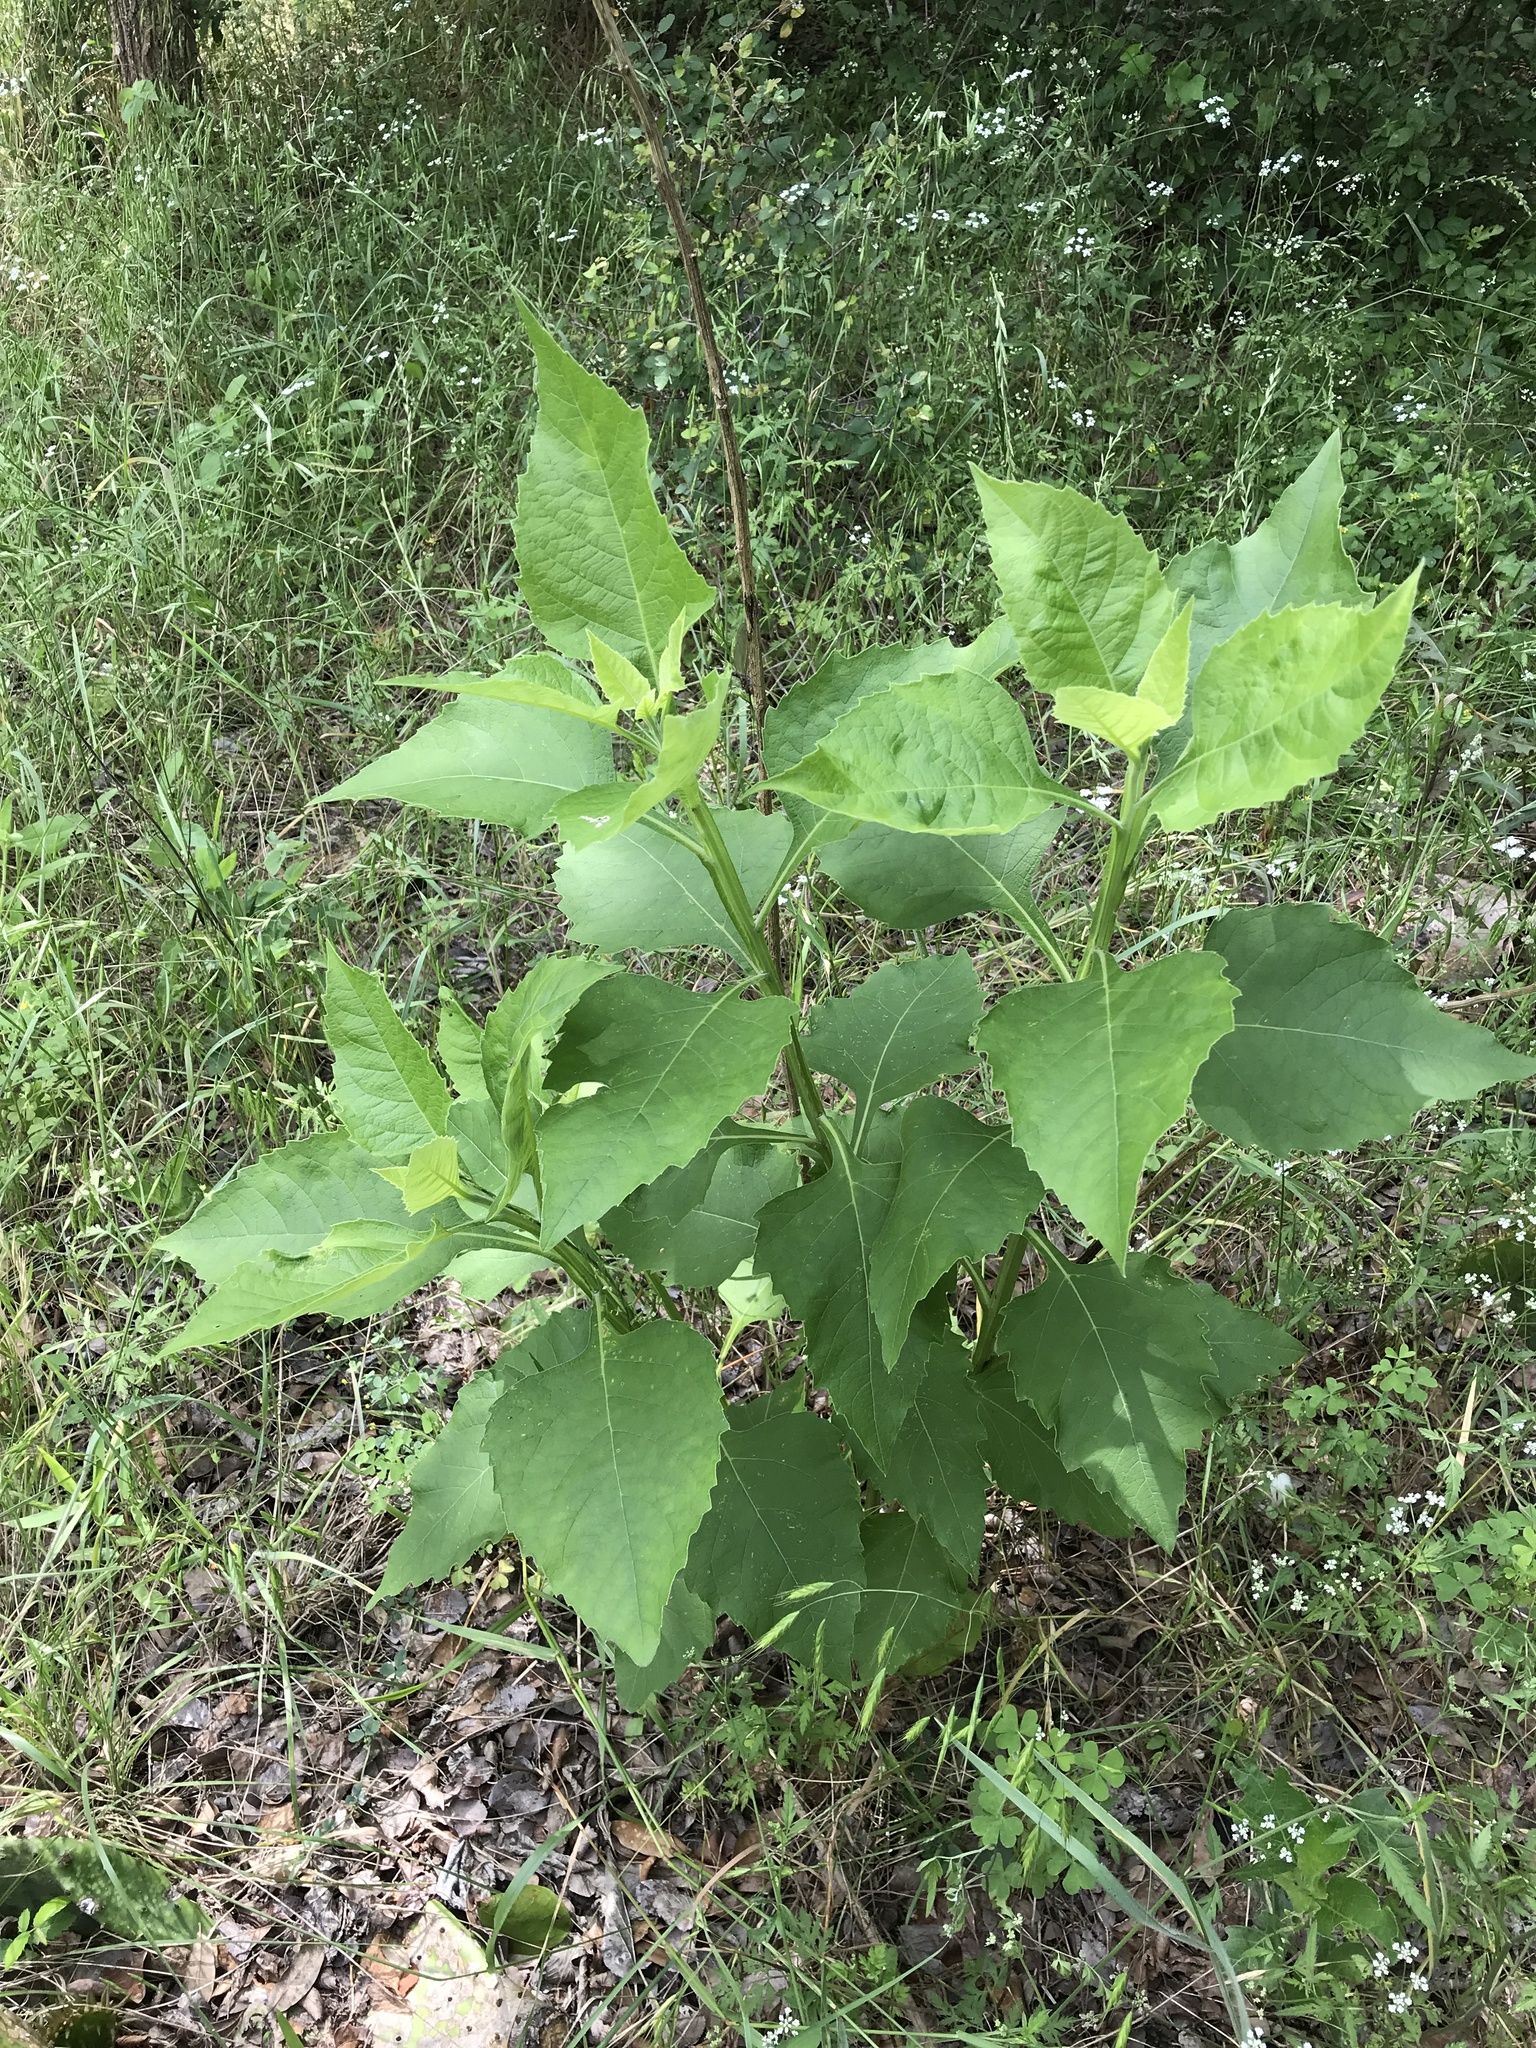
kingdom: Plantae
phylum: Tracheophyta
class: Magnoliopsida
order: Asterales
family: Asteraceae
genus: Verbesina
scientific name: Verbesina virginica
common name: Frostweed
